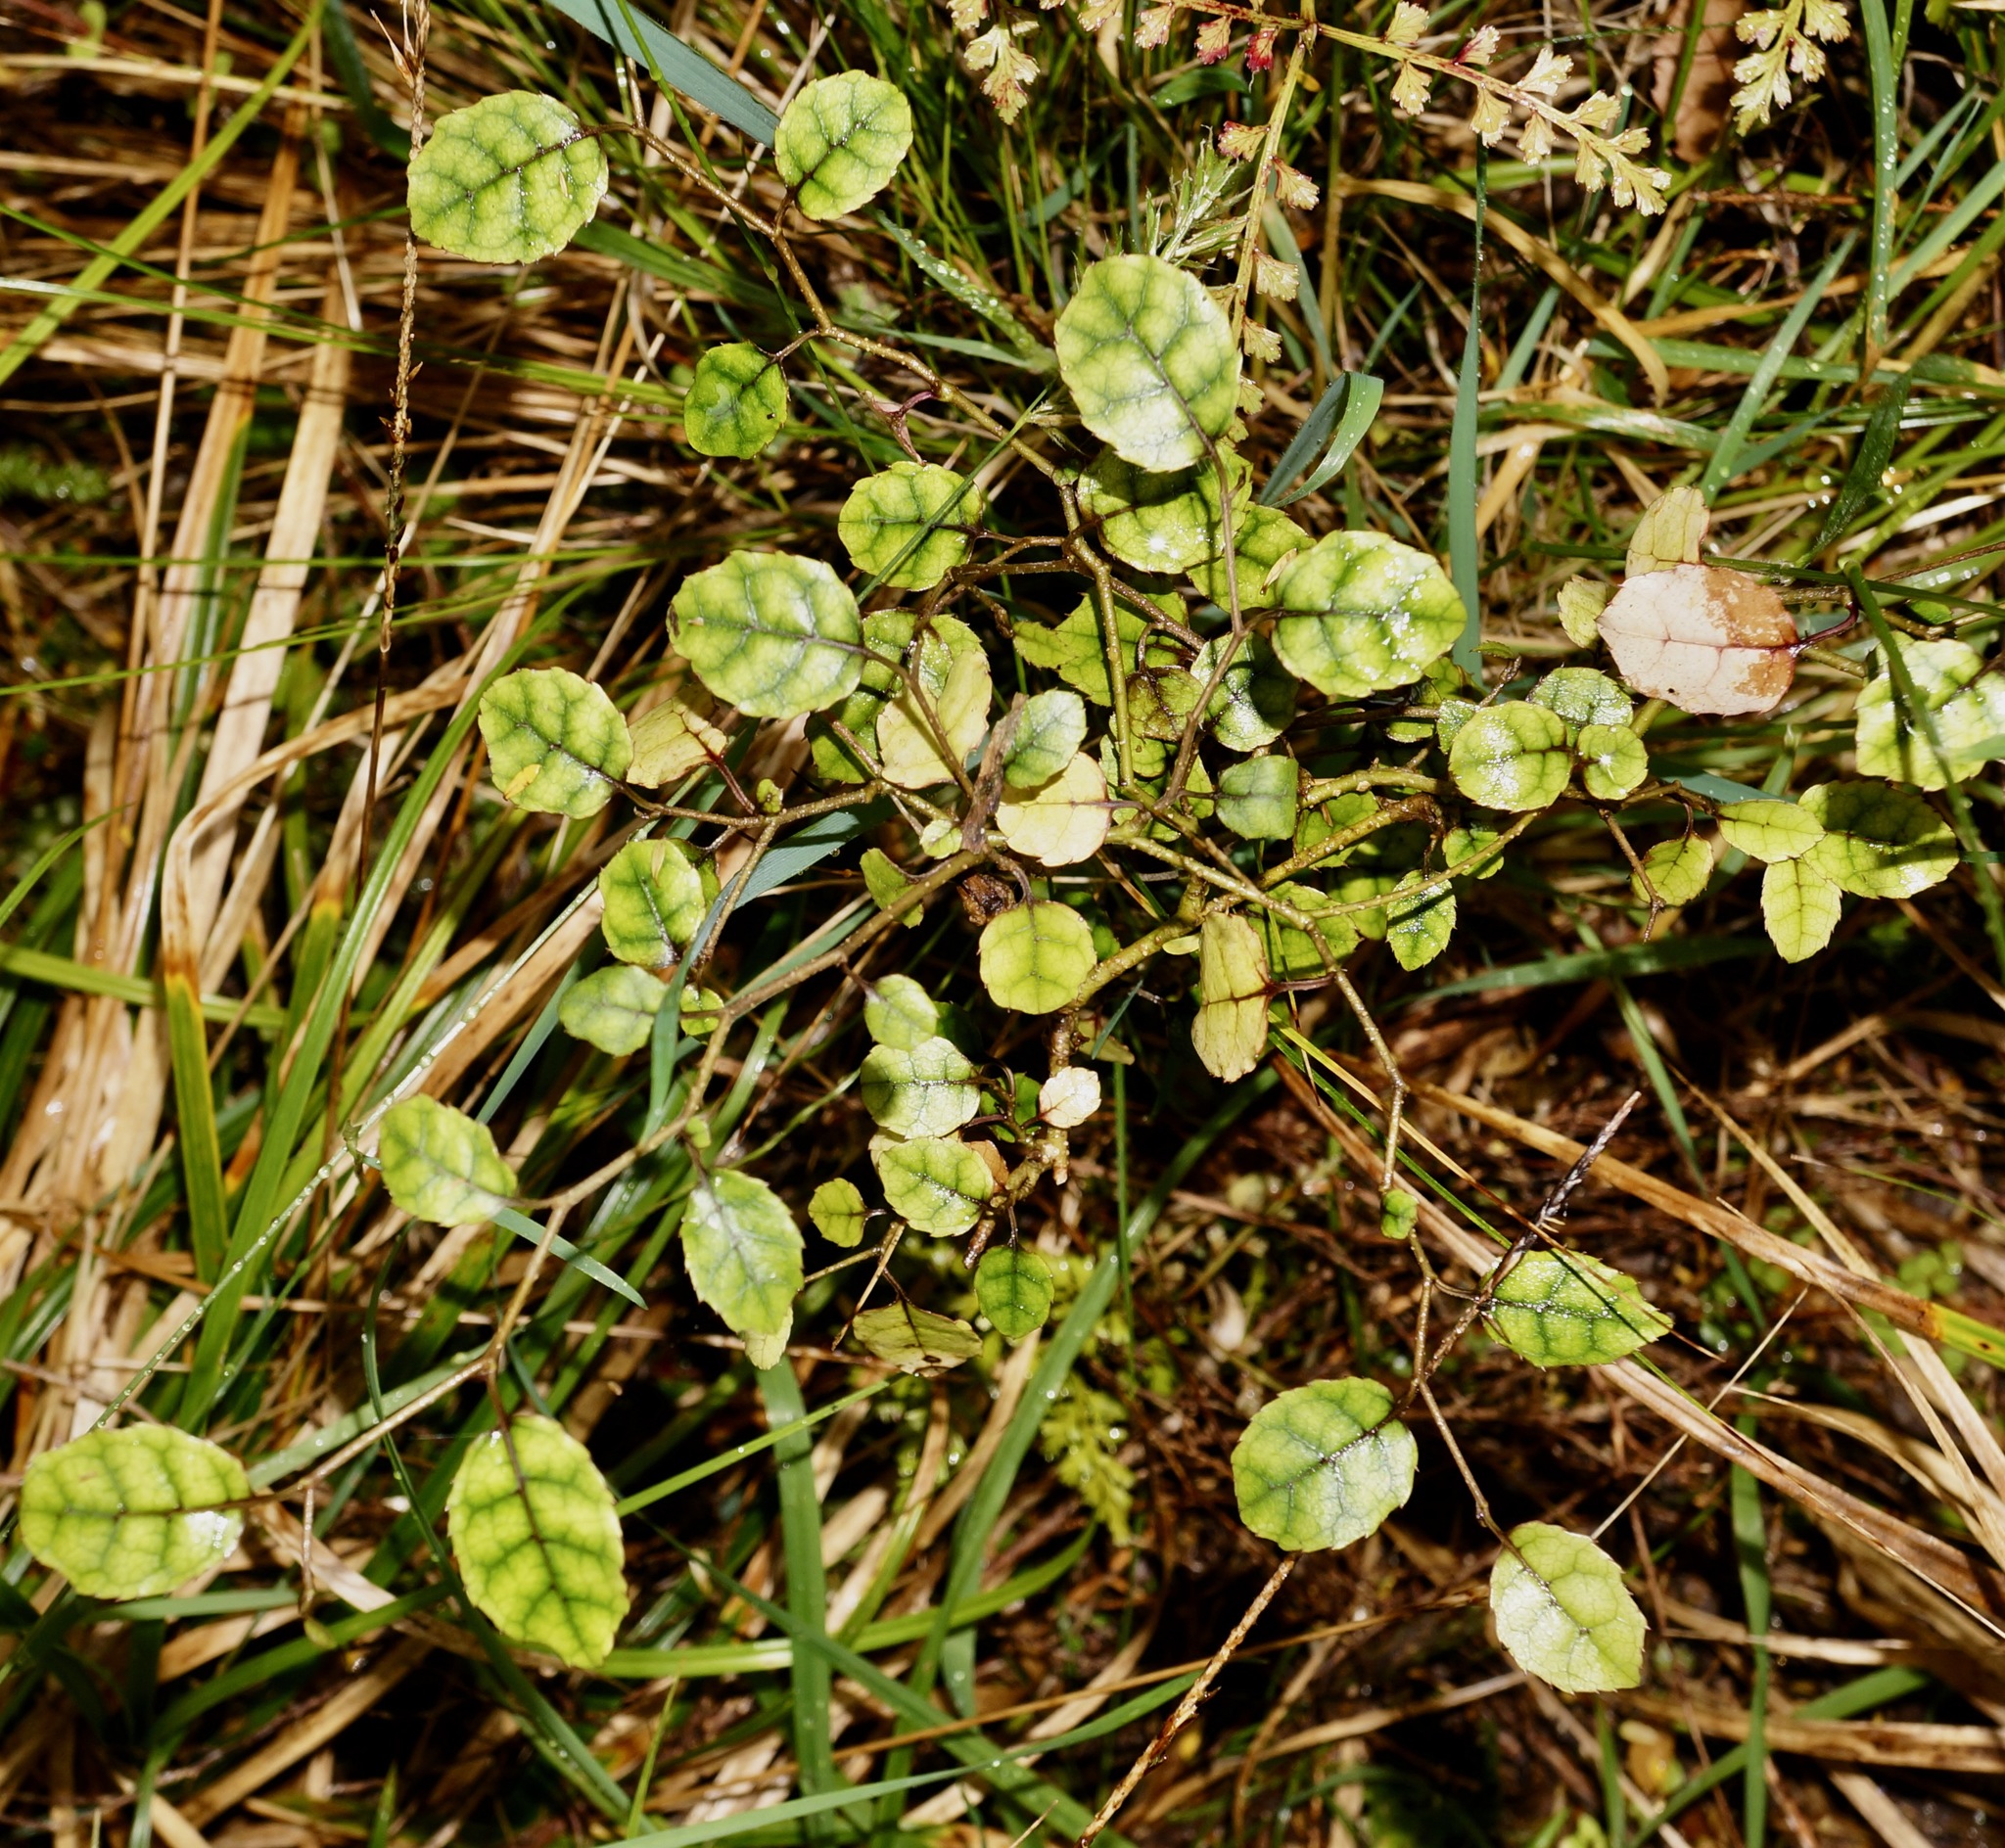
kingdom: Plantae
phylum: Tracheophyta
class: Magnoliopsida
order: Asterales
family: Rousseaceae
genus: Carpodetus
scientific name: Carpodetus serratus
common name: White mapau
